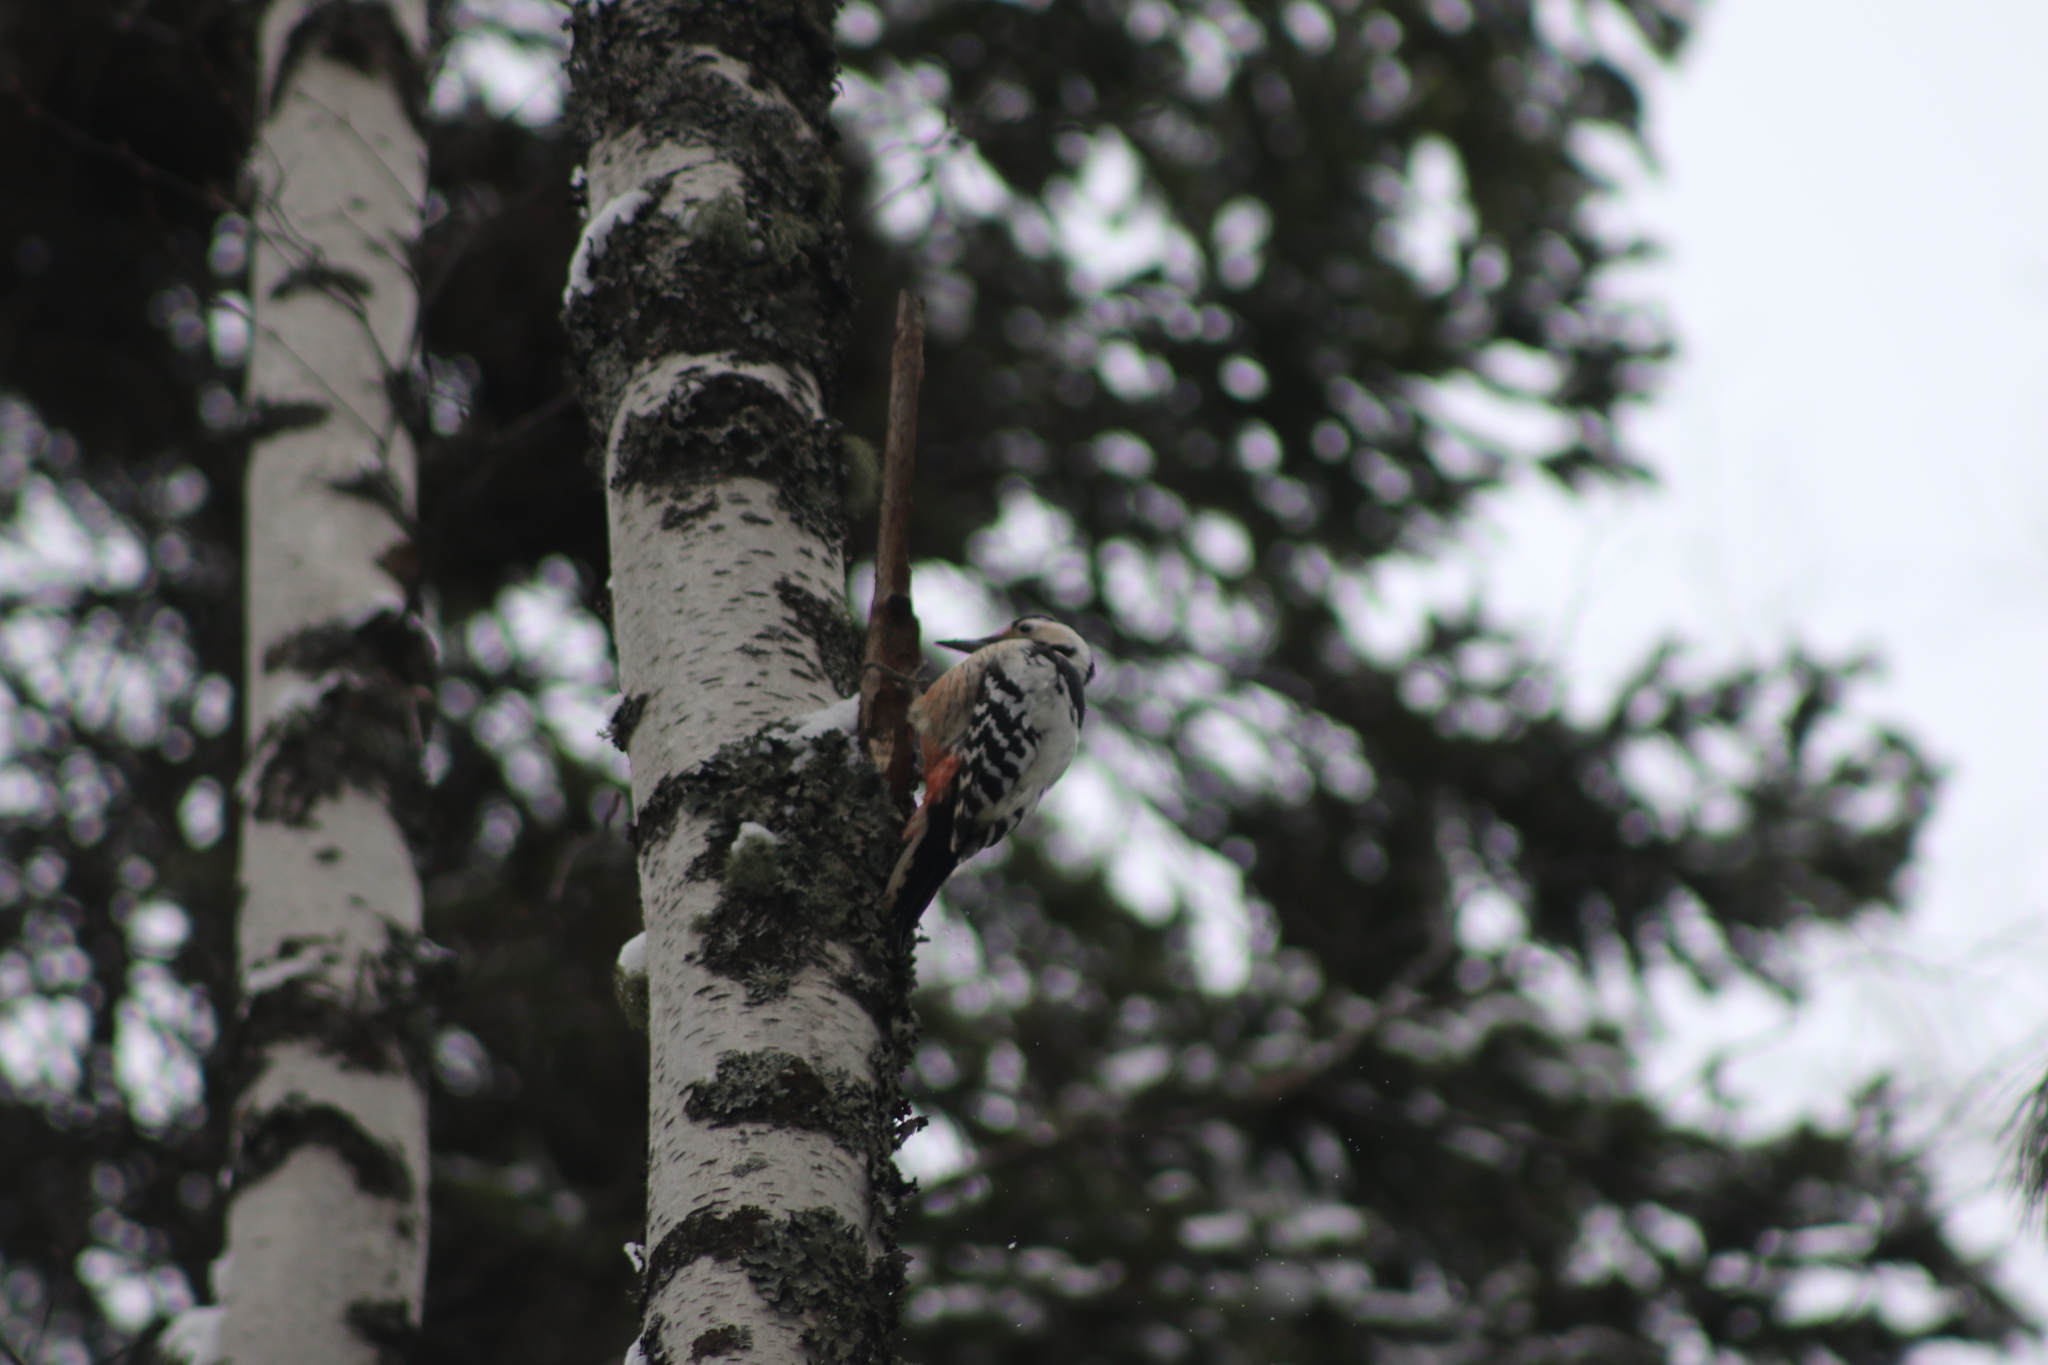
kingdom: Animalia
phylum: Chordata
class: Aves
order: Piciformes
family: Picidae
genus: Dendrocopos
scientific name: Dendrocopos leucotos
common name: White-backed woodpecker
